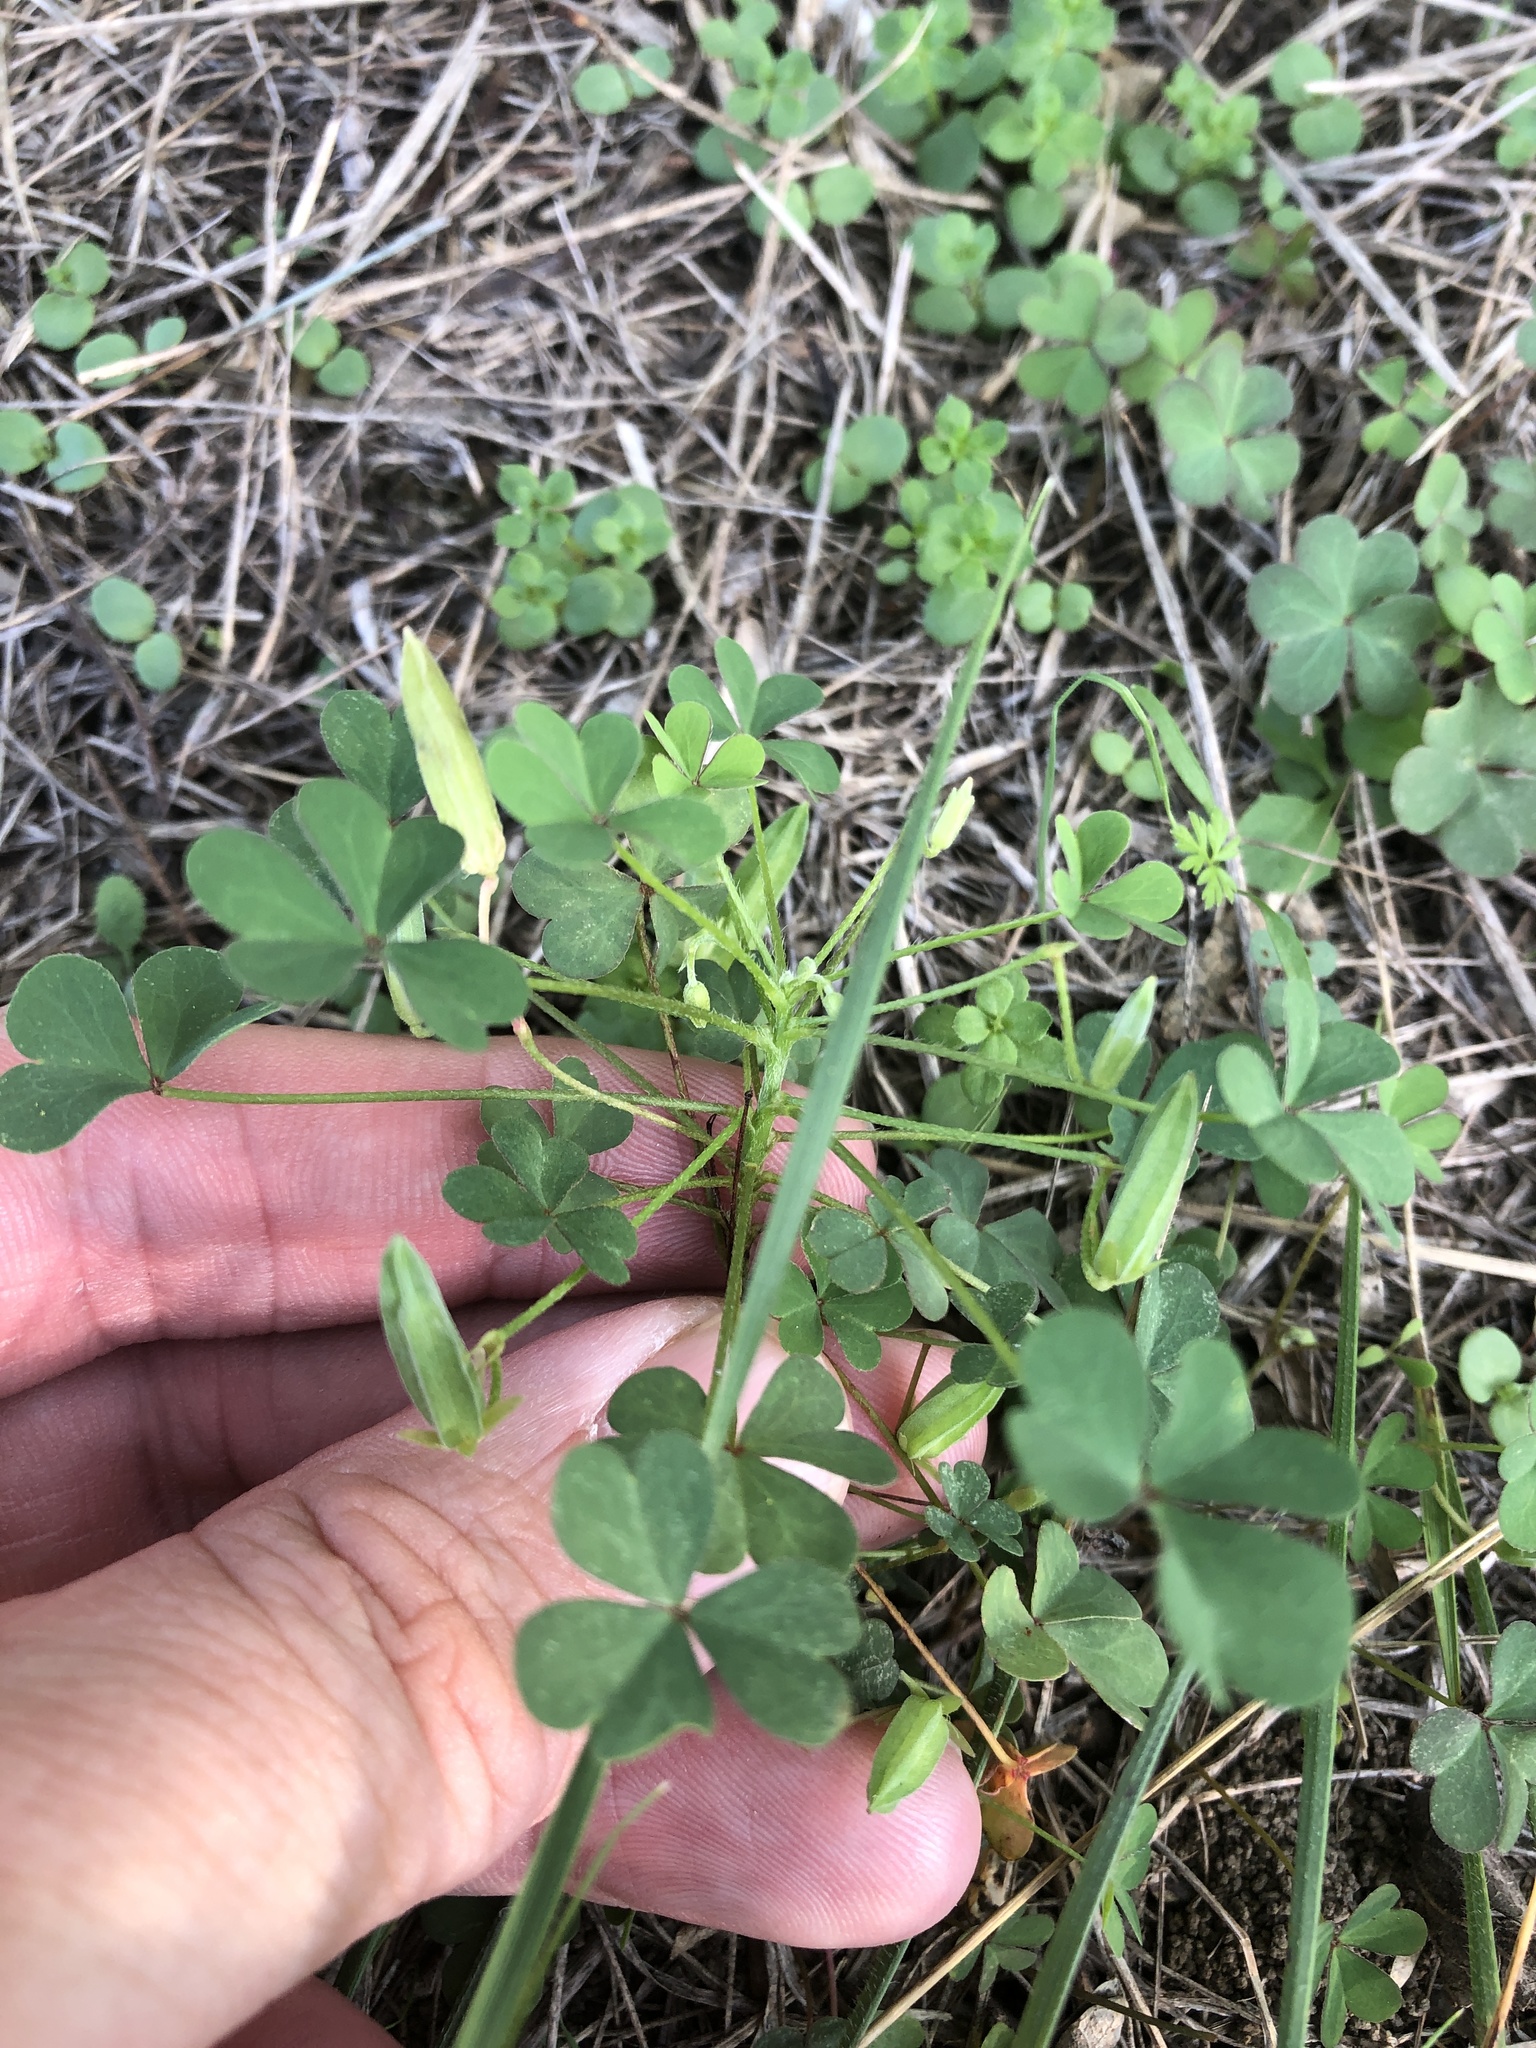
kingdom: Plantae
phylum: Tracheophyta
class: Magnoliopsida
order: Oxalidales
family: Oxalidaceae
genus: Oxalis
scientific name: Oxalis dillenii
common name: Sussex yellow-sorrel
